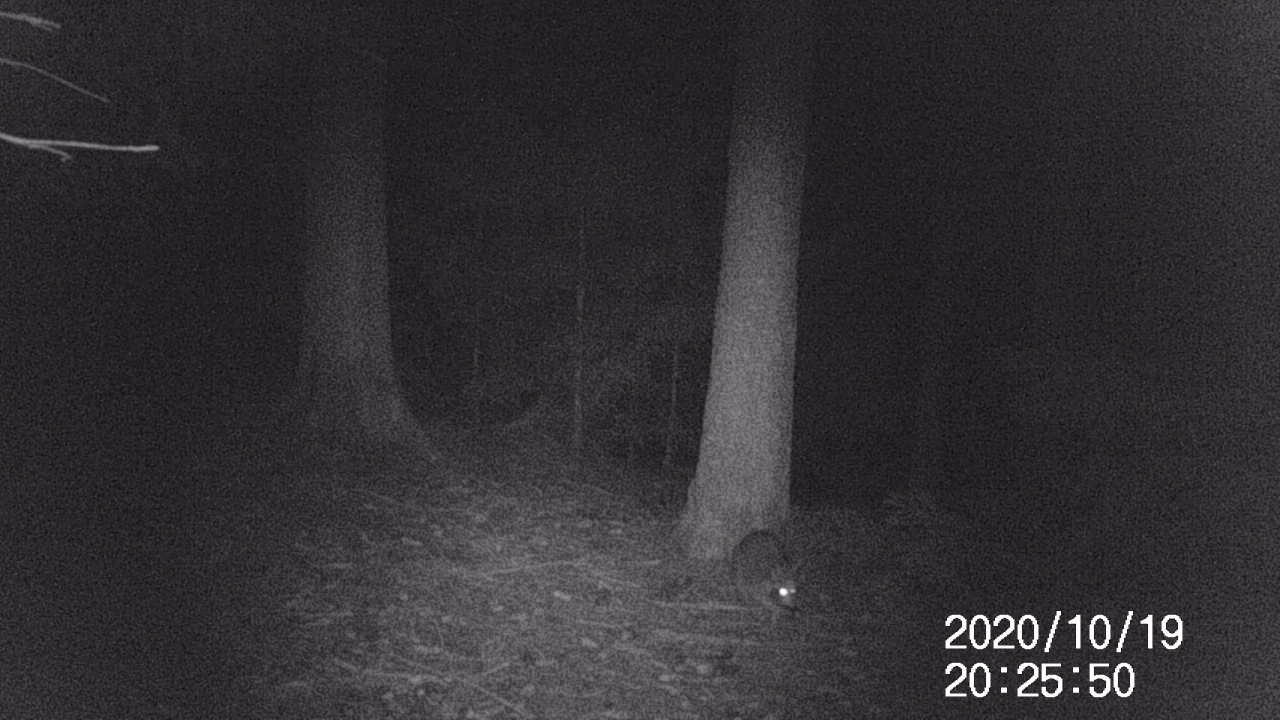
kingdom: Animalia
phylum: Chordata
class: Mammalia
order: Carnivora
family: Procyonidae
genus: Procyon
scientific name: Procyon lotor
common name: Raccoon
